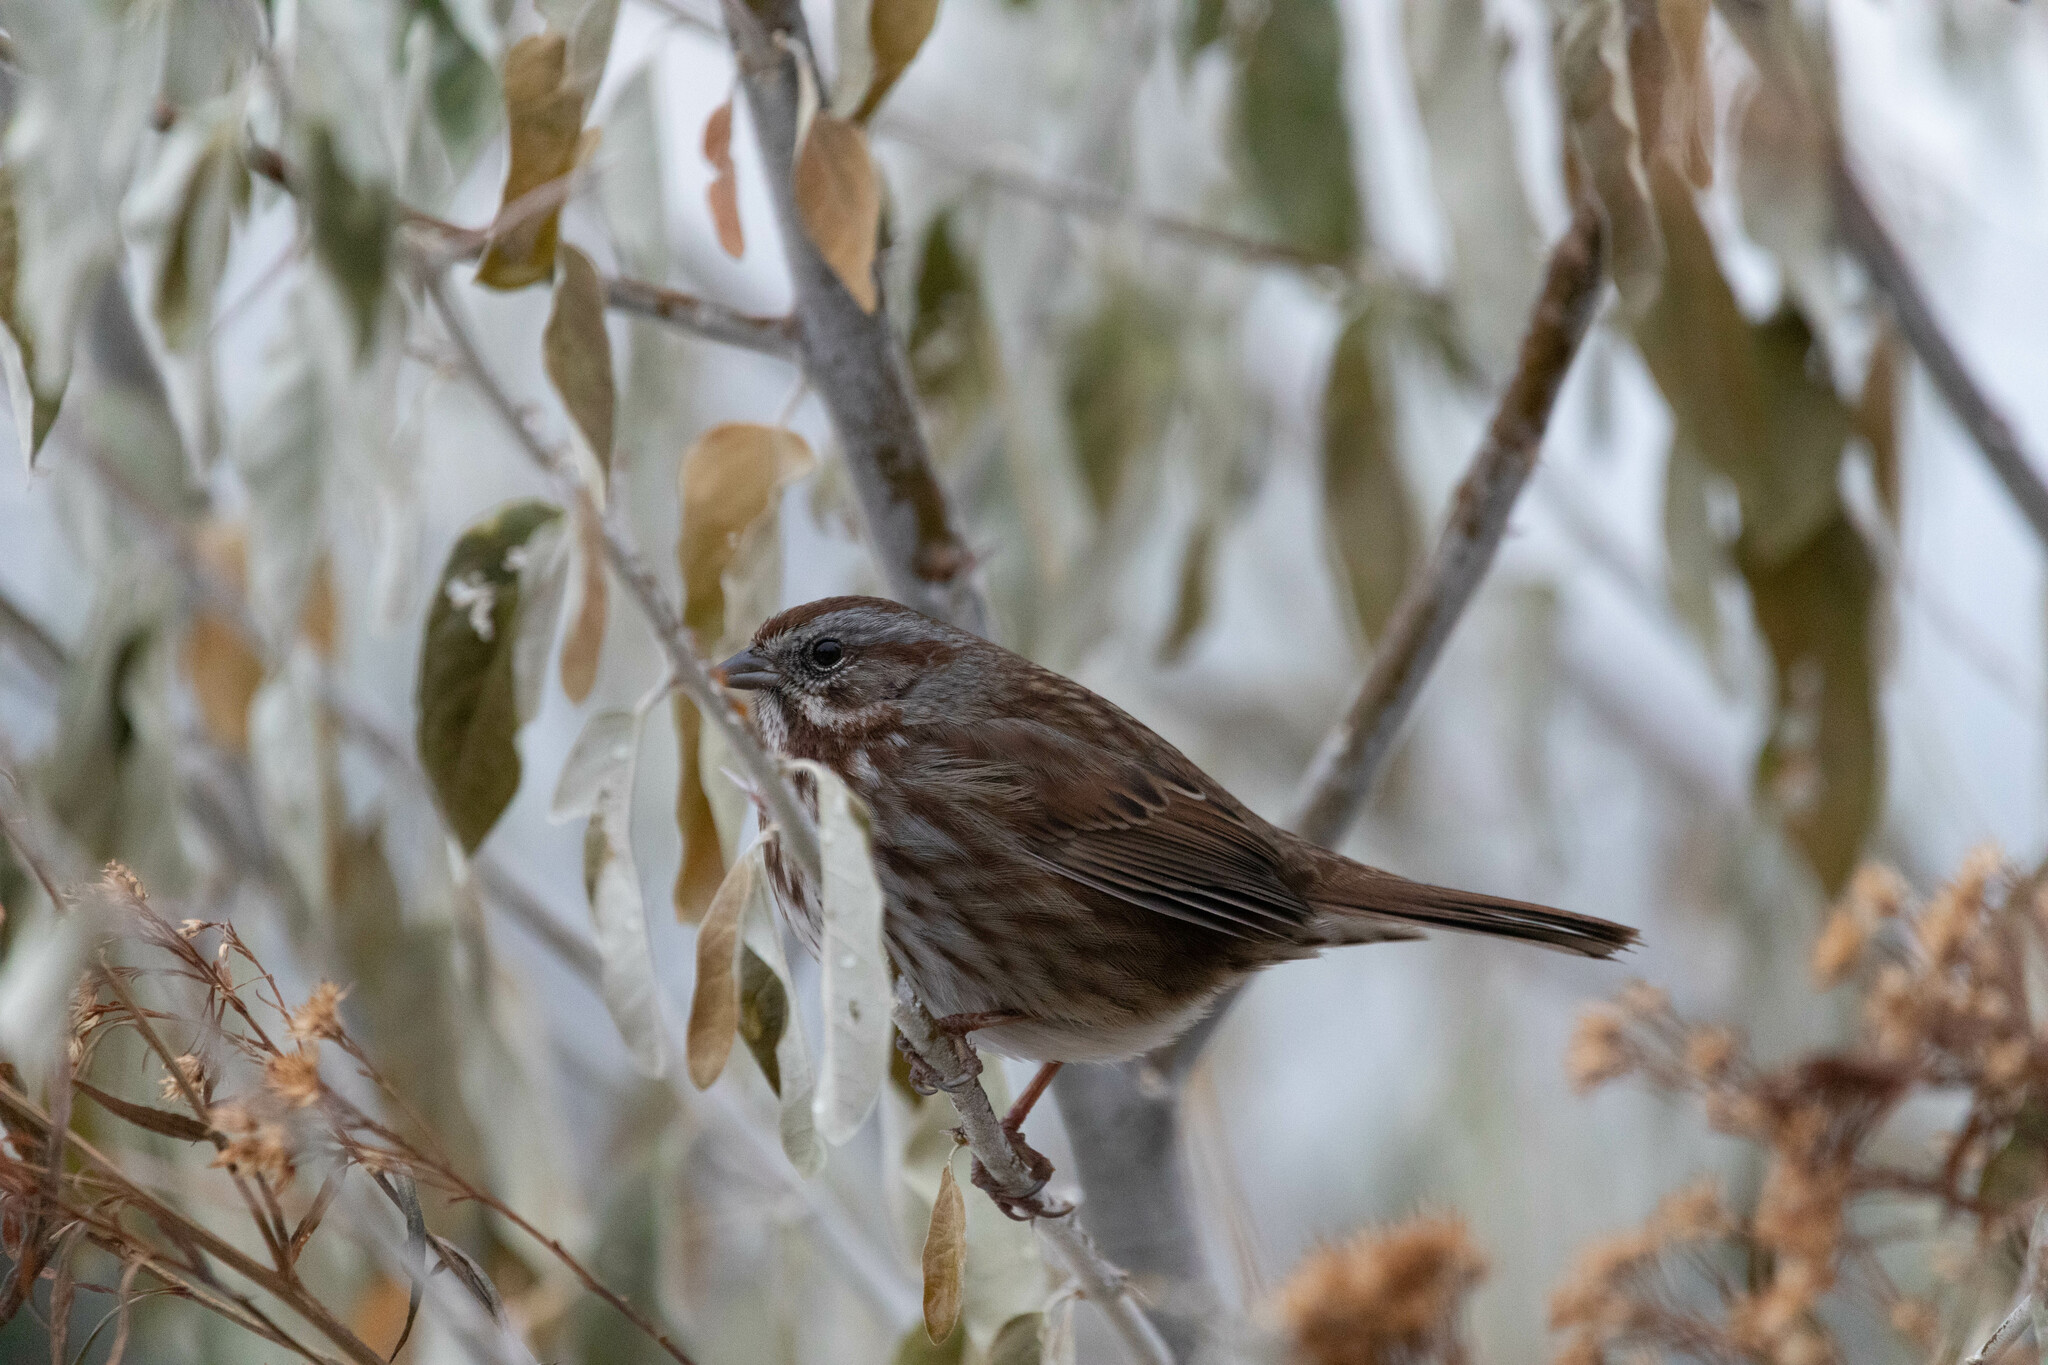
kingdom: Animalia
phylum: Chordata
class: Aves
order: Passeriformes
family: Passerellidae
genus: Melospiza
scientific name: Melospiza melodia
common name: Song sparrow
